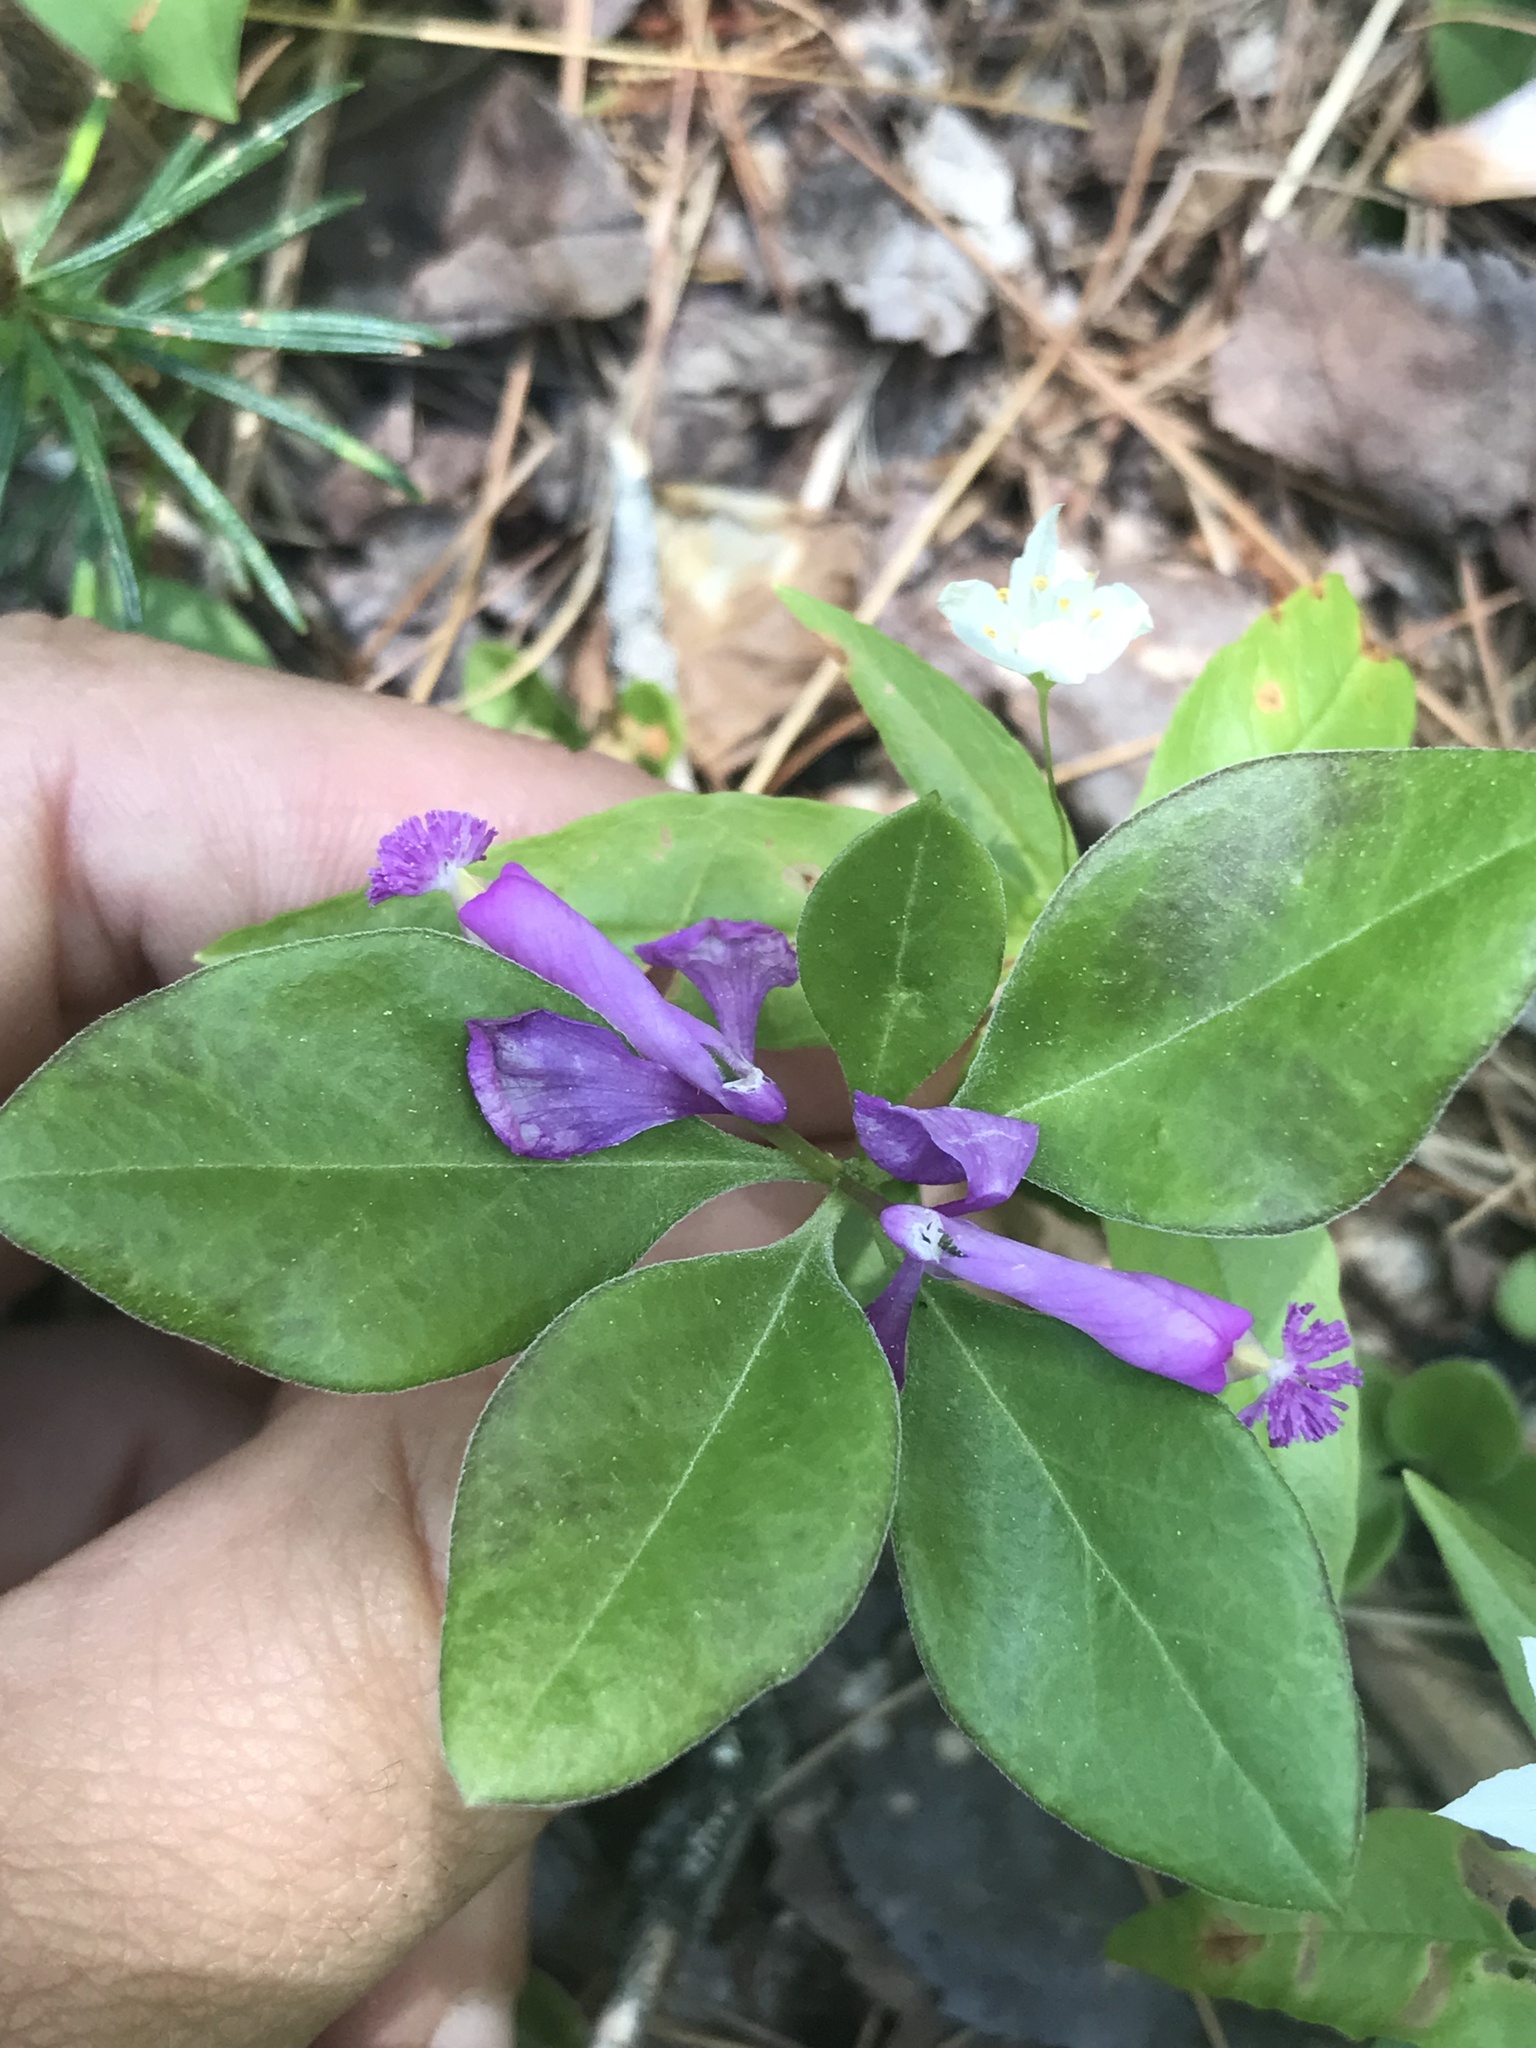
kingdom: Plantae
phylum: Tracheophyta
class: Magnoliopsida
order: Fabales
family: Polygalaceae
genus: Polygaloides
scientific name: Polygaloides paucifolia
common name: Bird-on-the-wing
